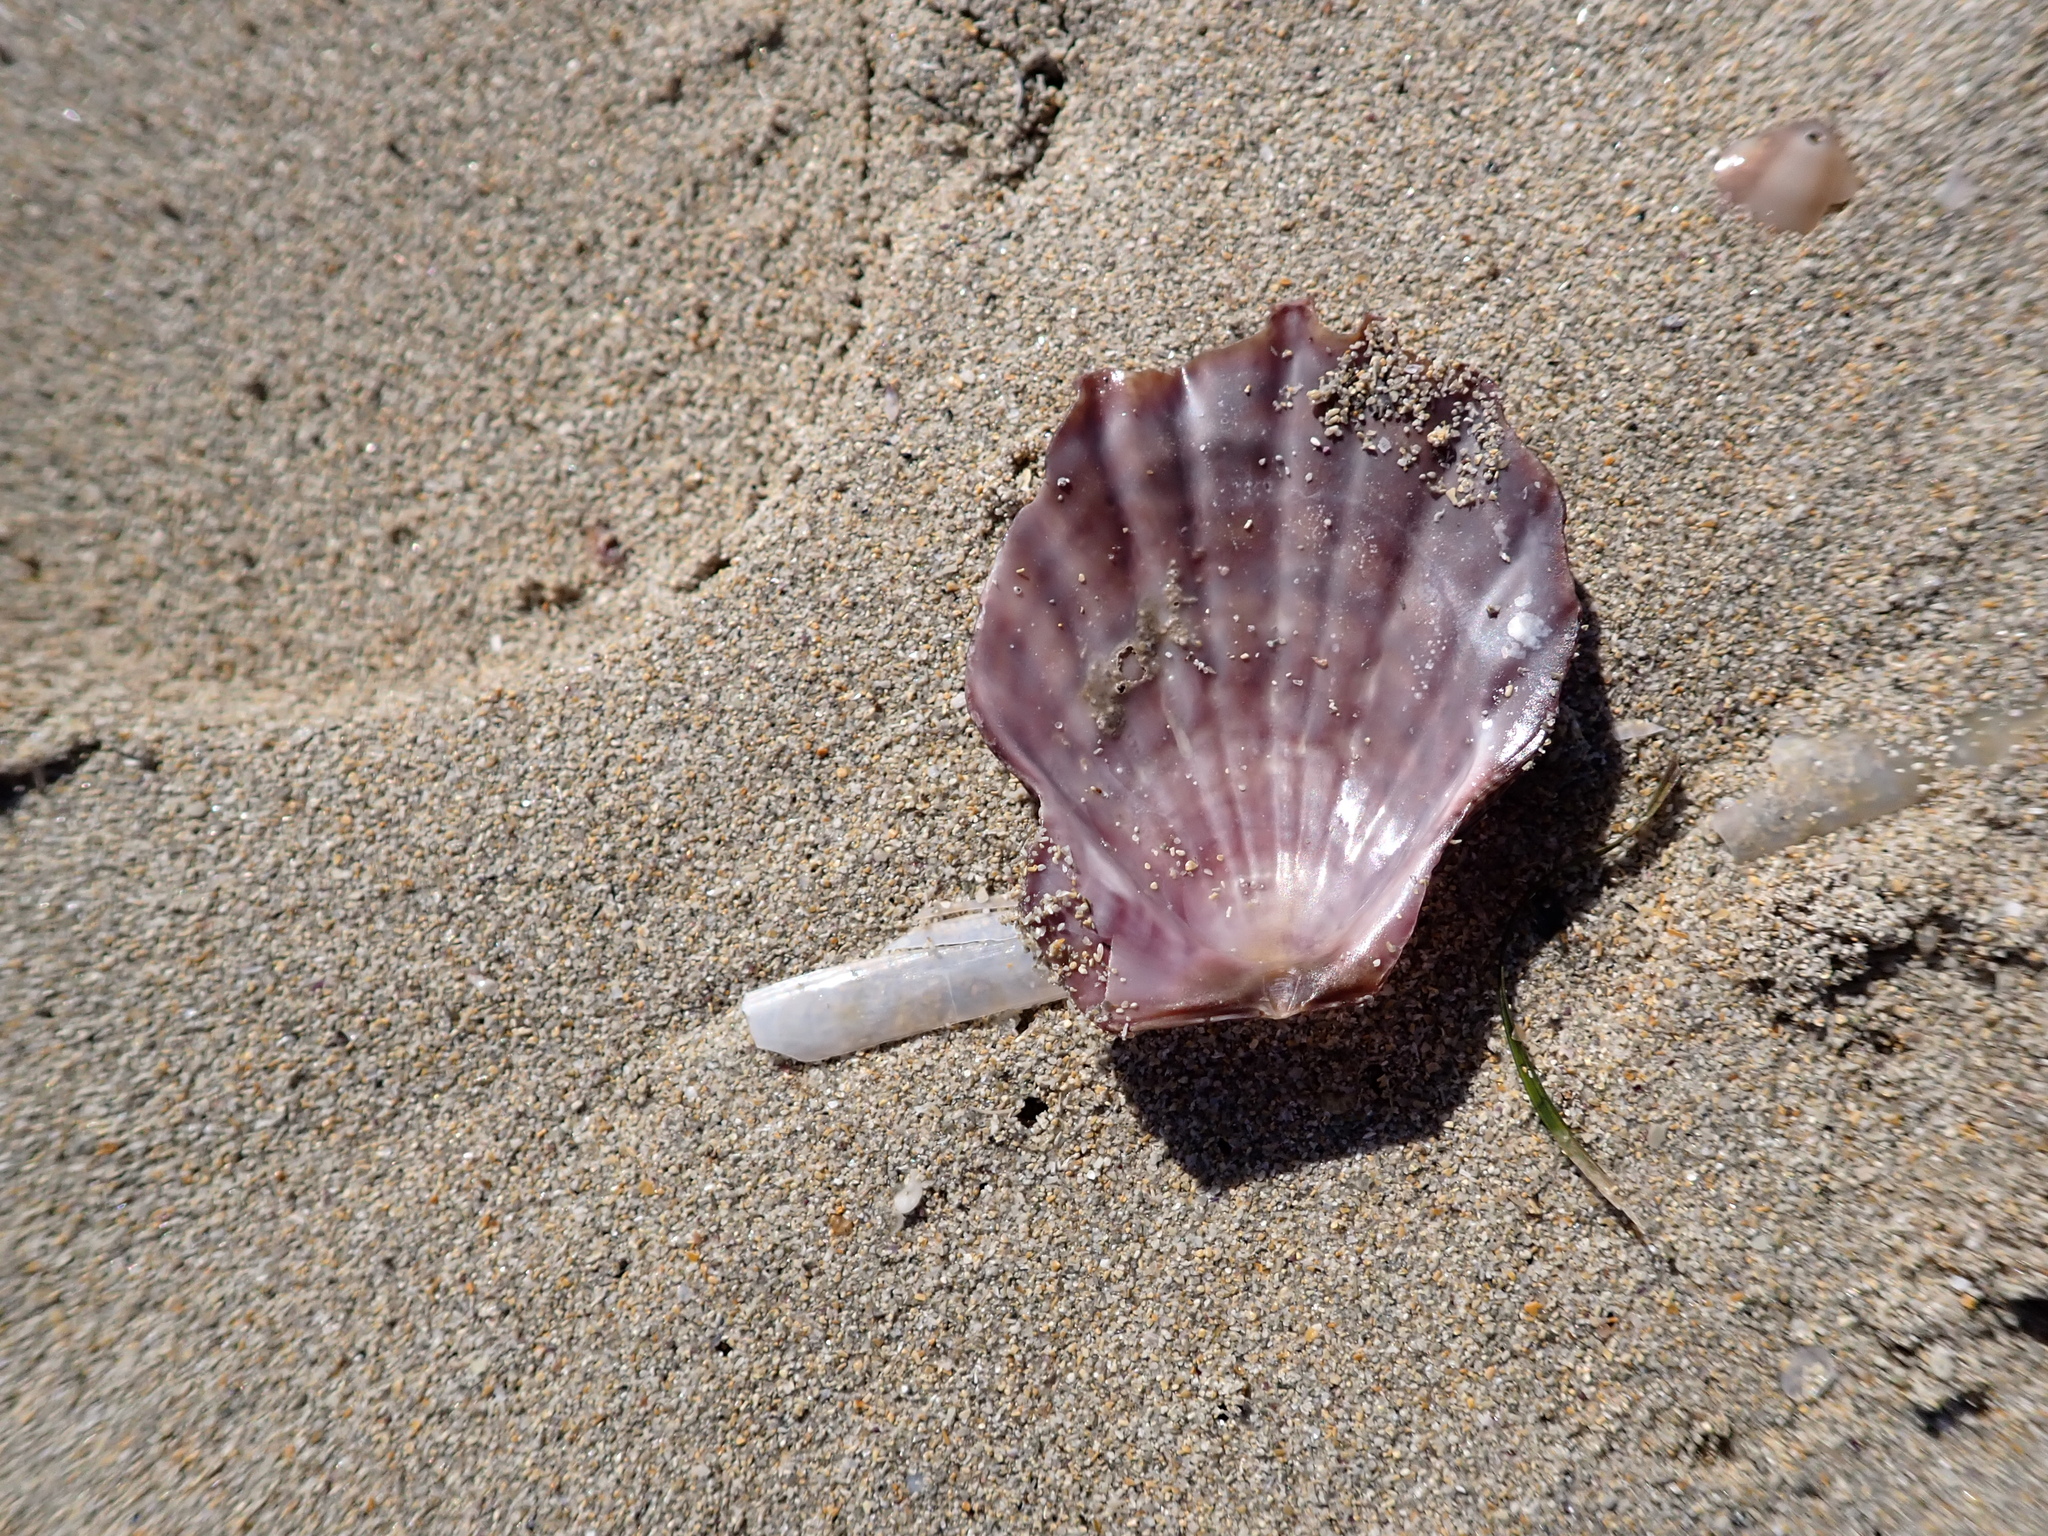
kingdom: Animalia
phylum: Mollusca
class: Bivalvia
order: Pectinida
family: Pectinidae
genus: Scaeochlamys
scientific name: Scaeochlamys livida
